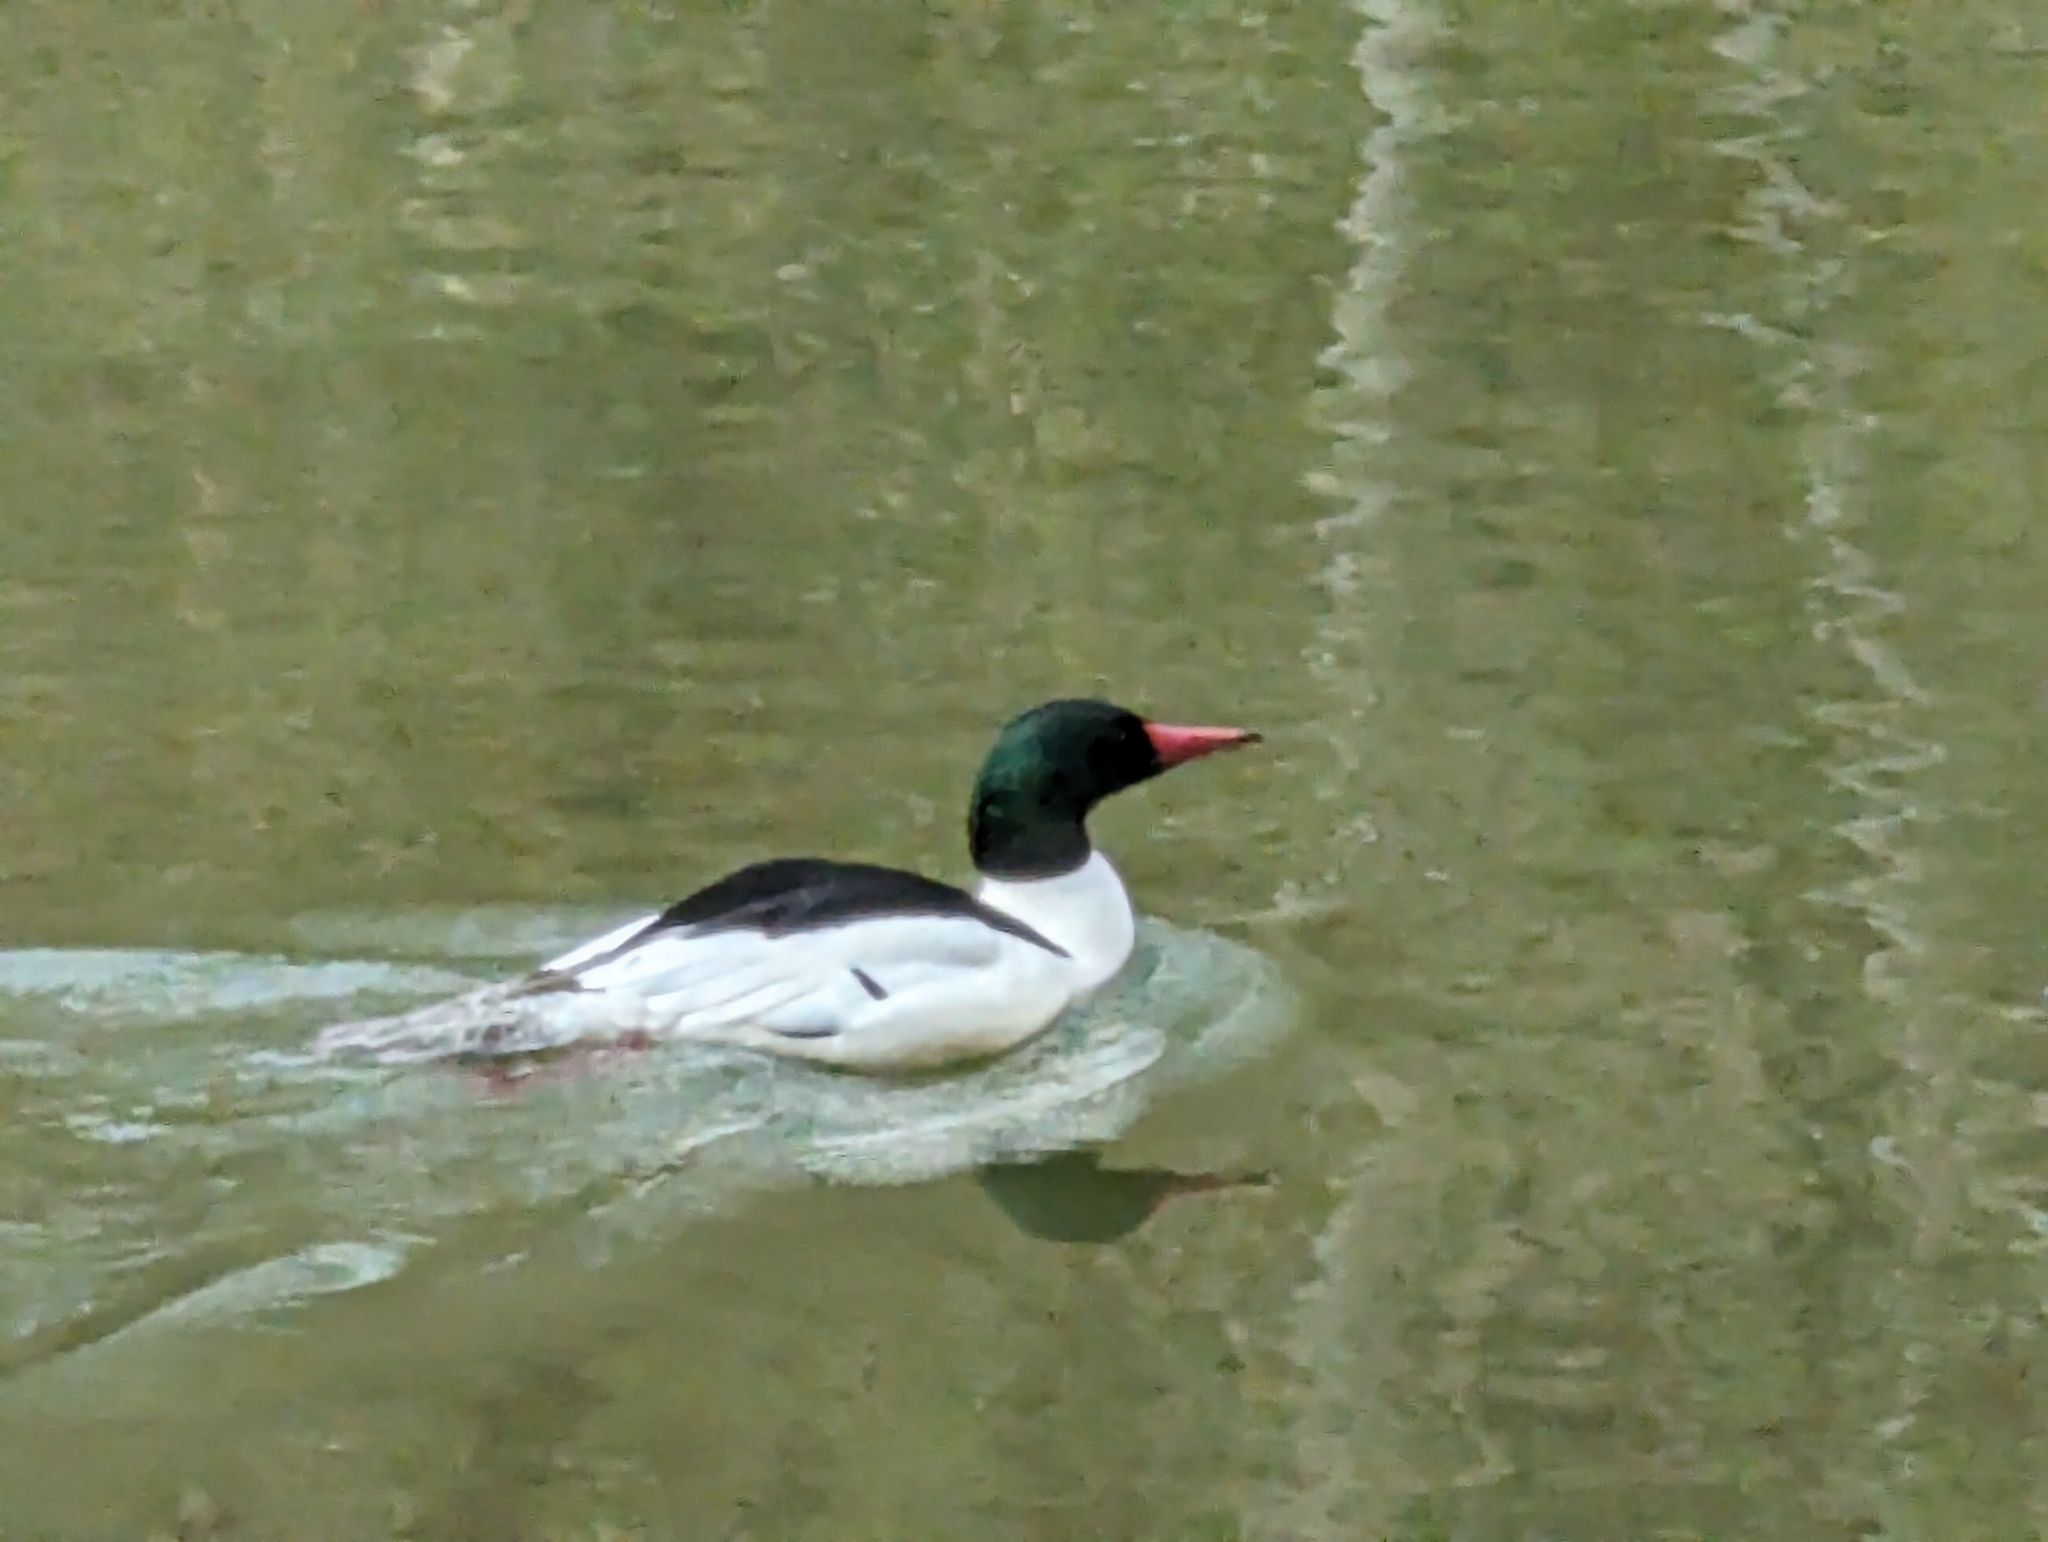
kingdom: Animalia
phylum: Chordata
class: Aves
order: Anseriformes
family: Anatidae
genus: Mergus
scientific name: Mergus merganser
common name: Common merganser
